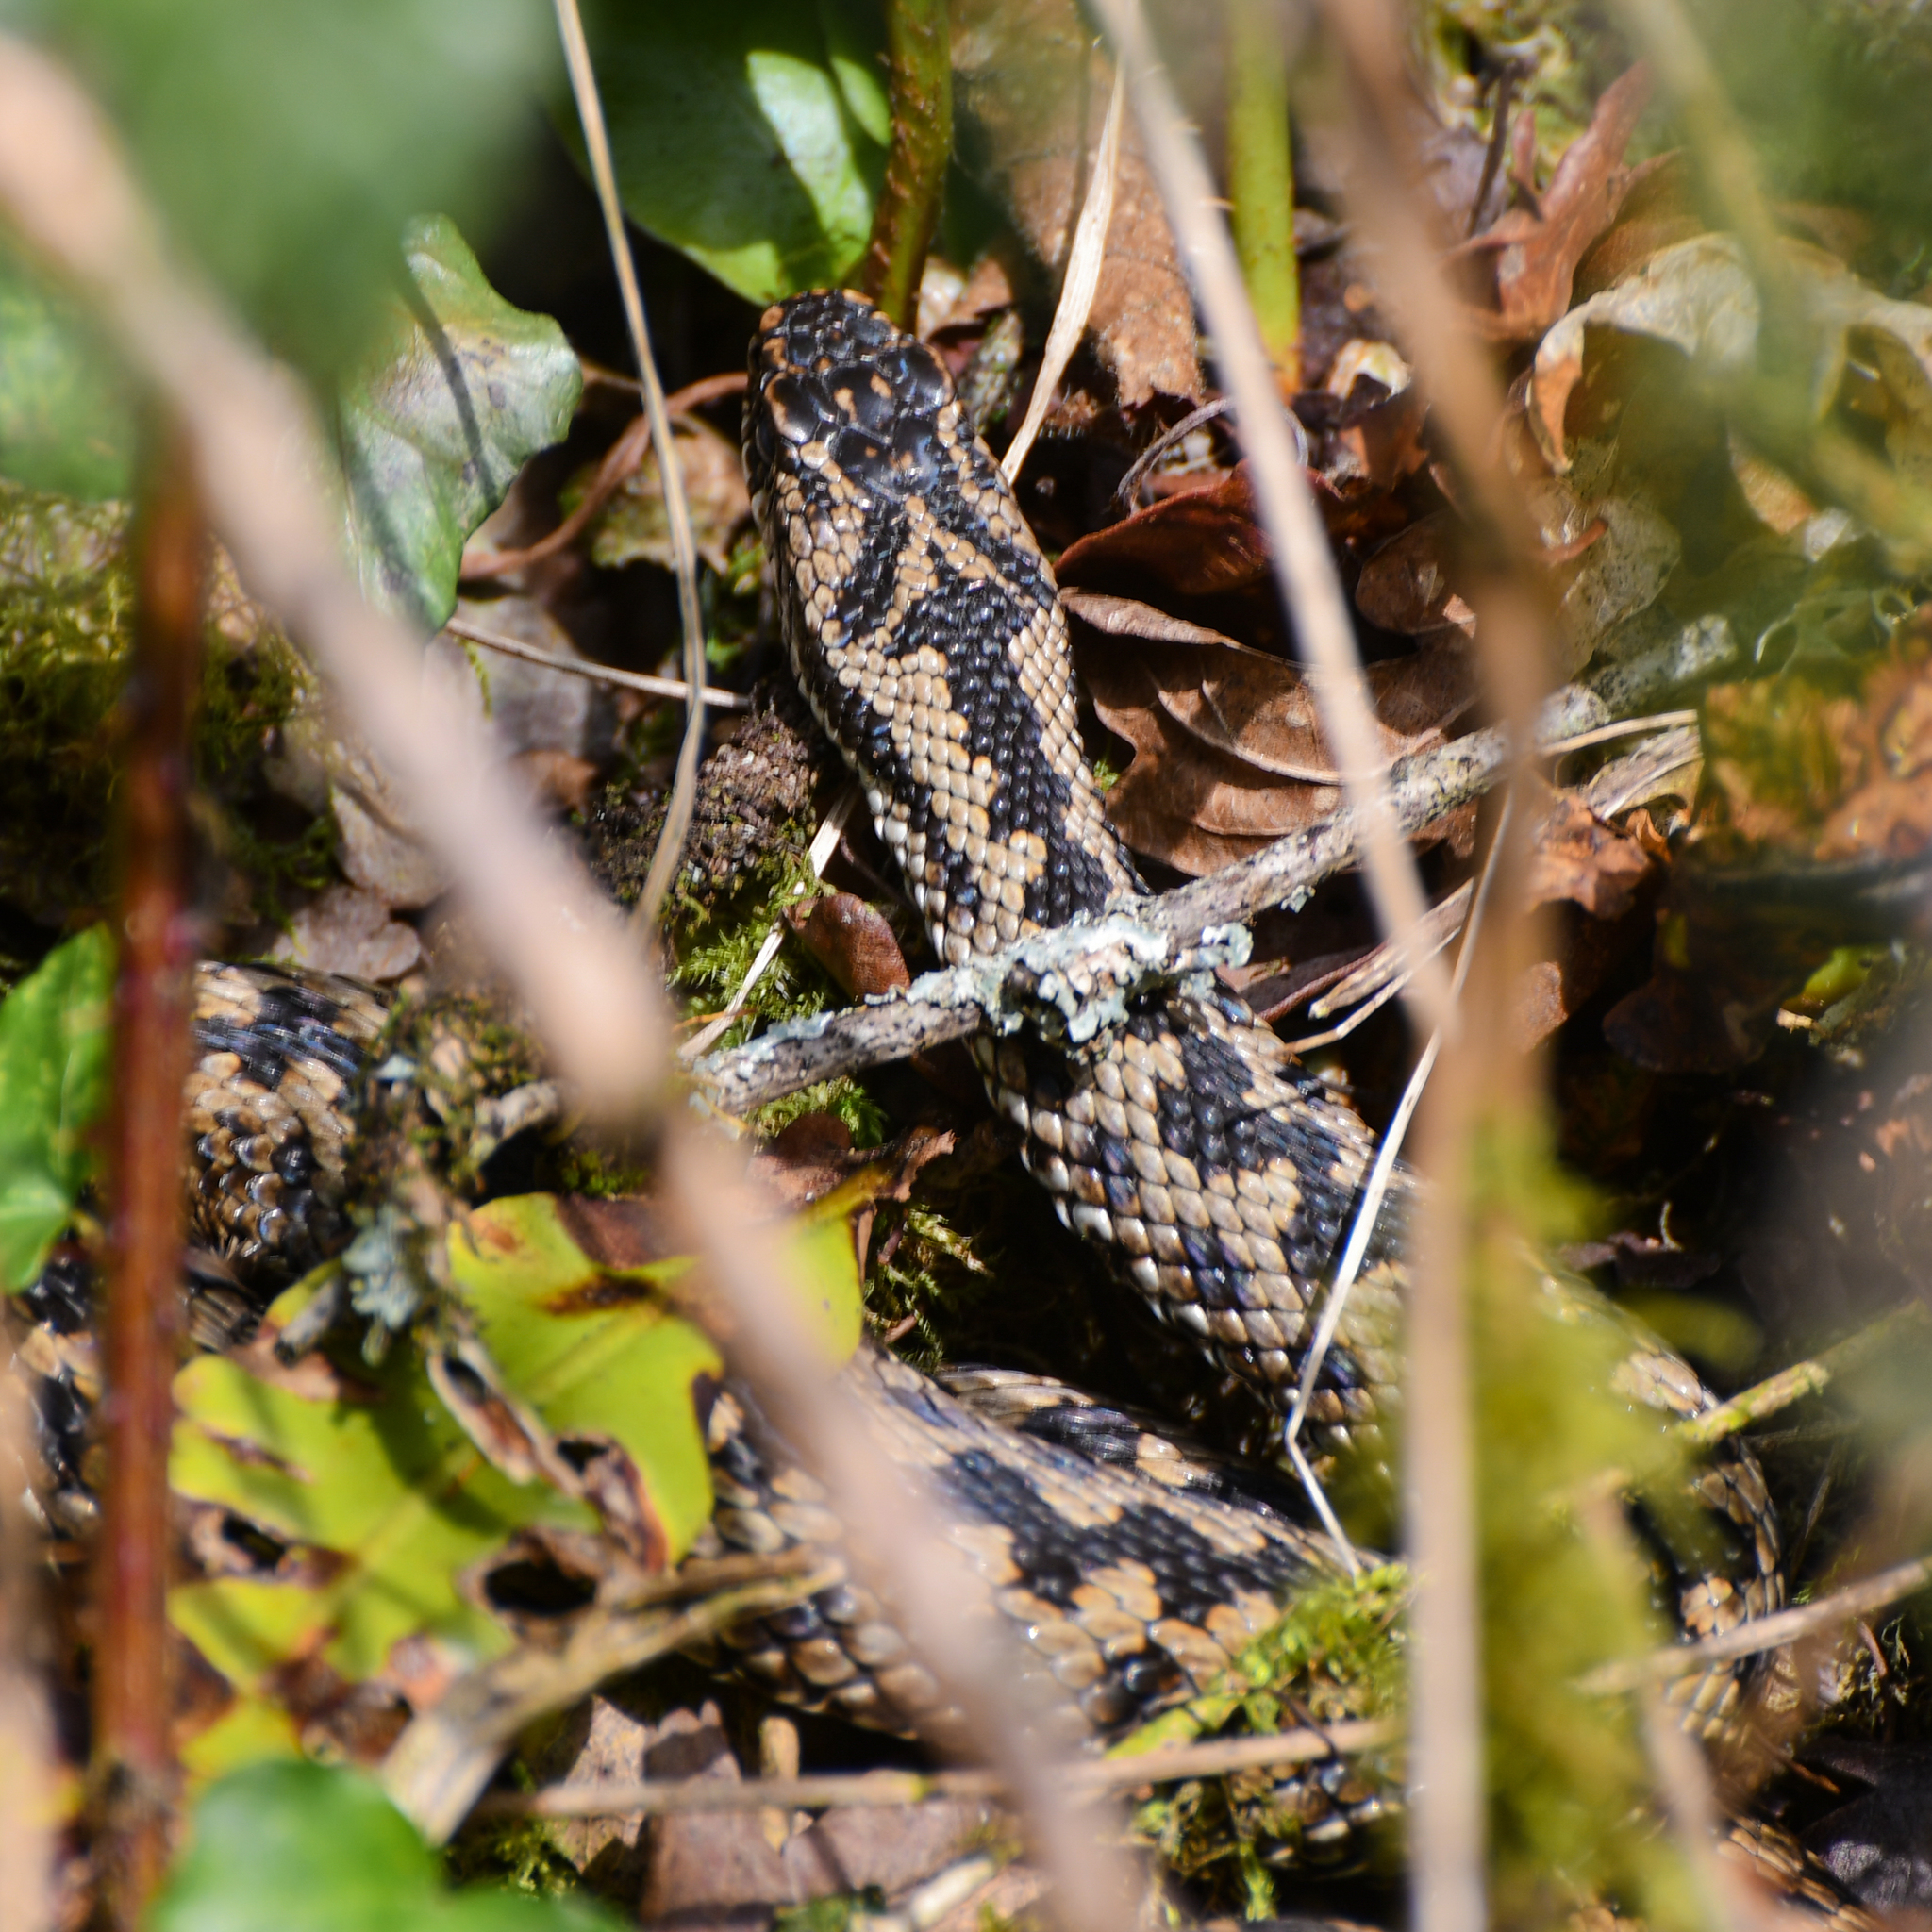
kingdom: Animalia
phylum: Chordata
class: Squamata
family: Viperidae
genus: Vipera
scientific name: Vipera berus
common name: Adder
